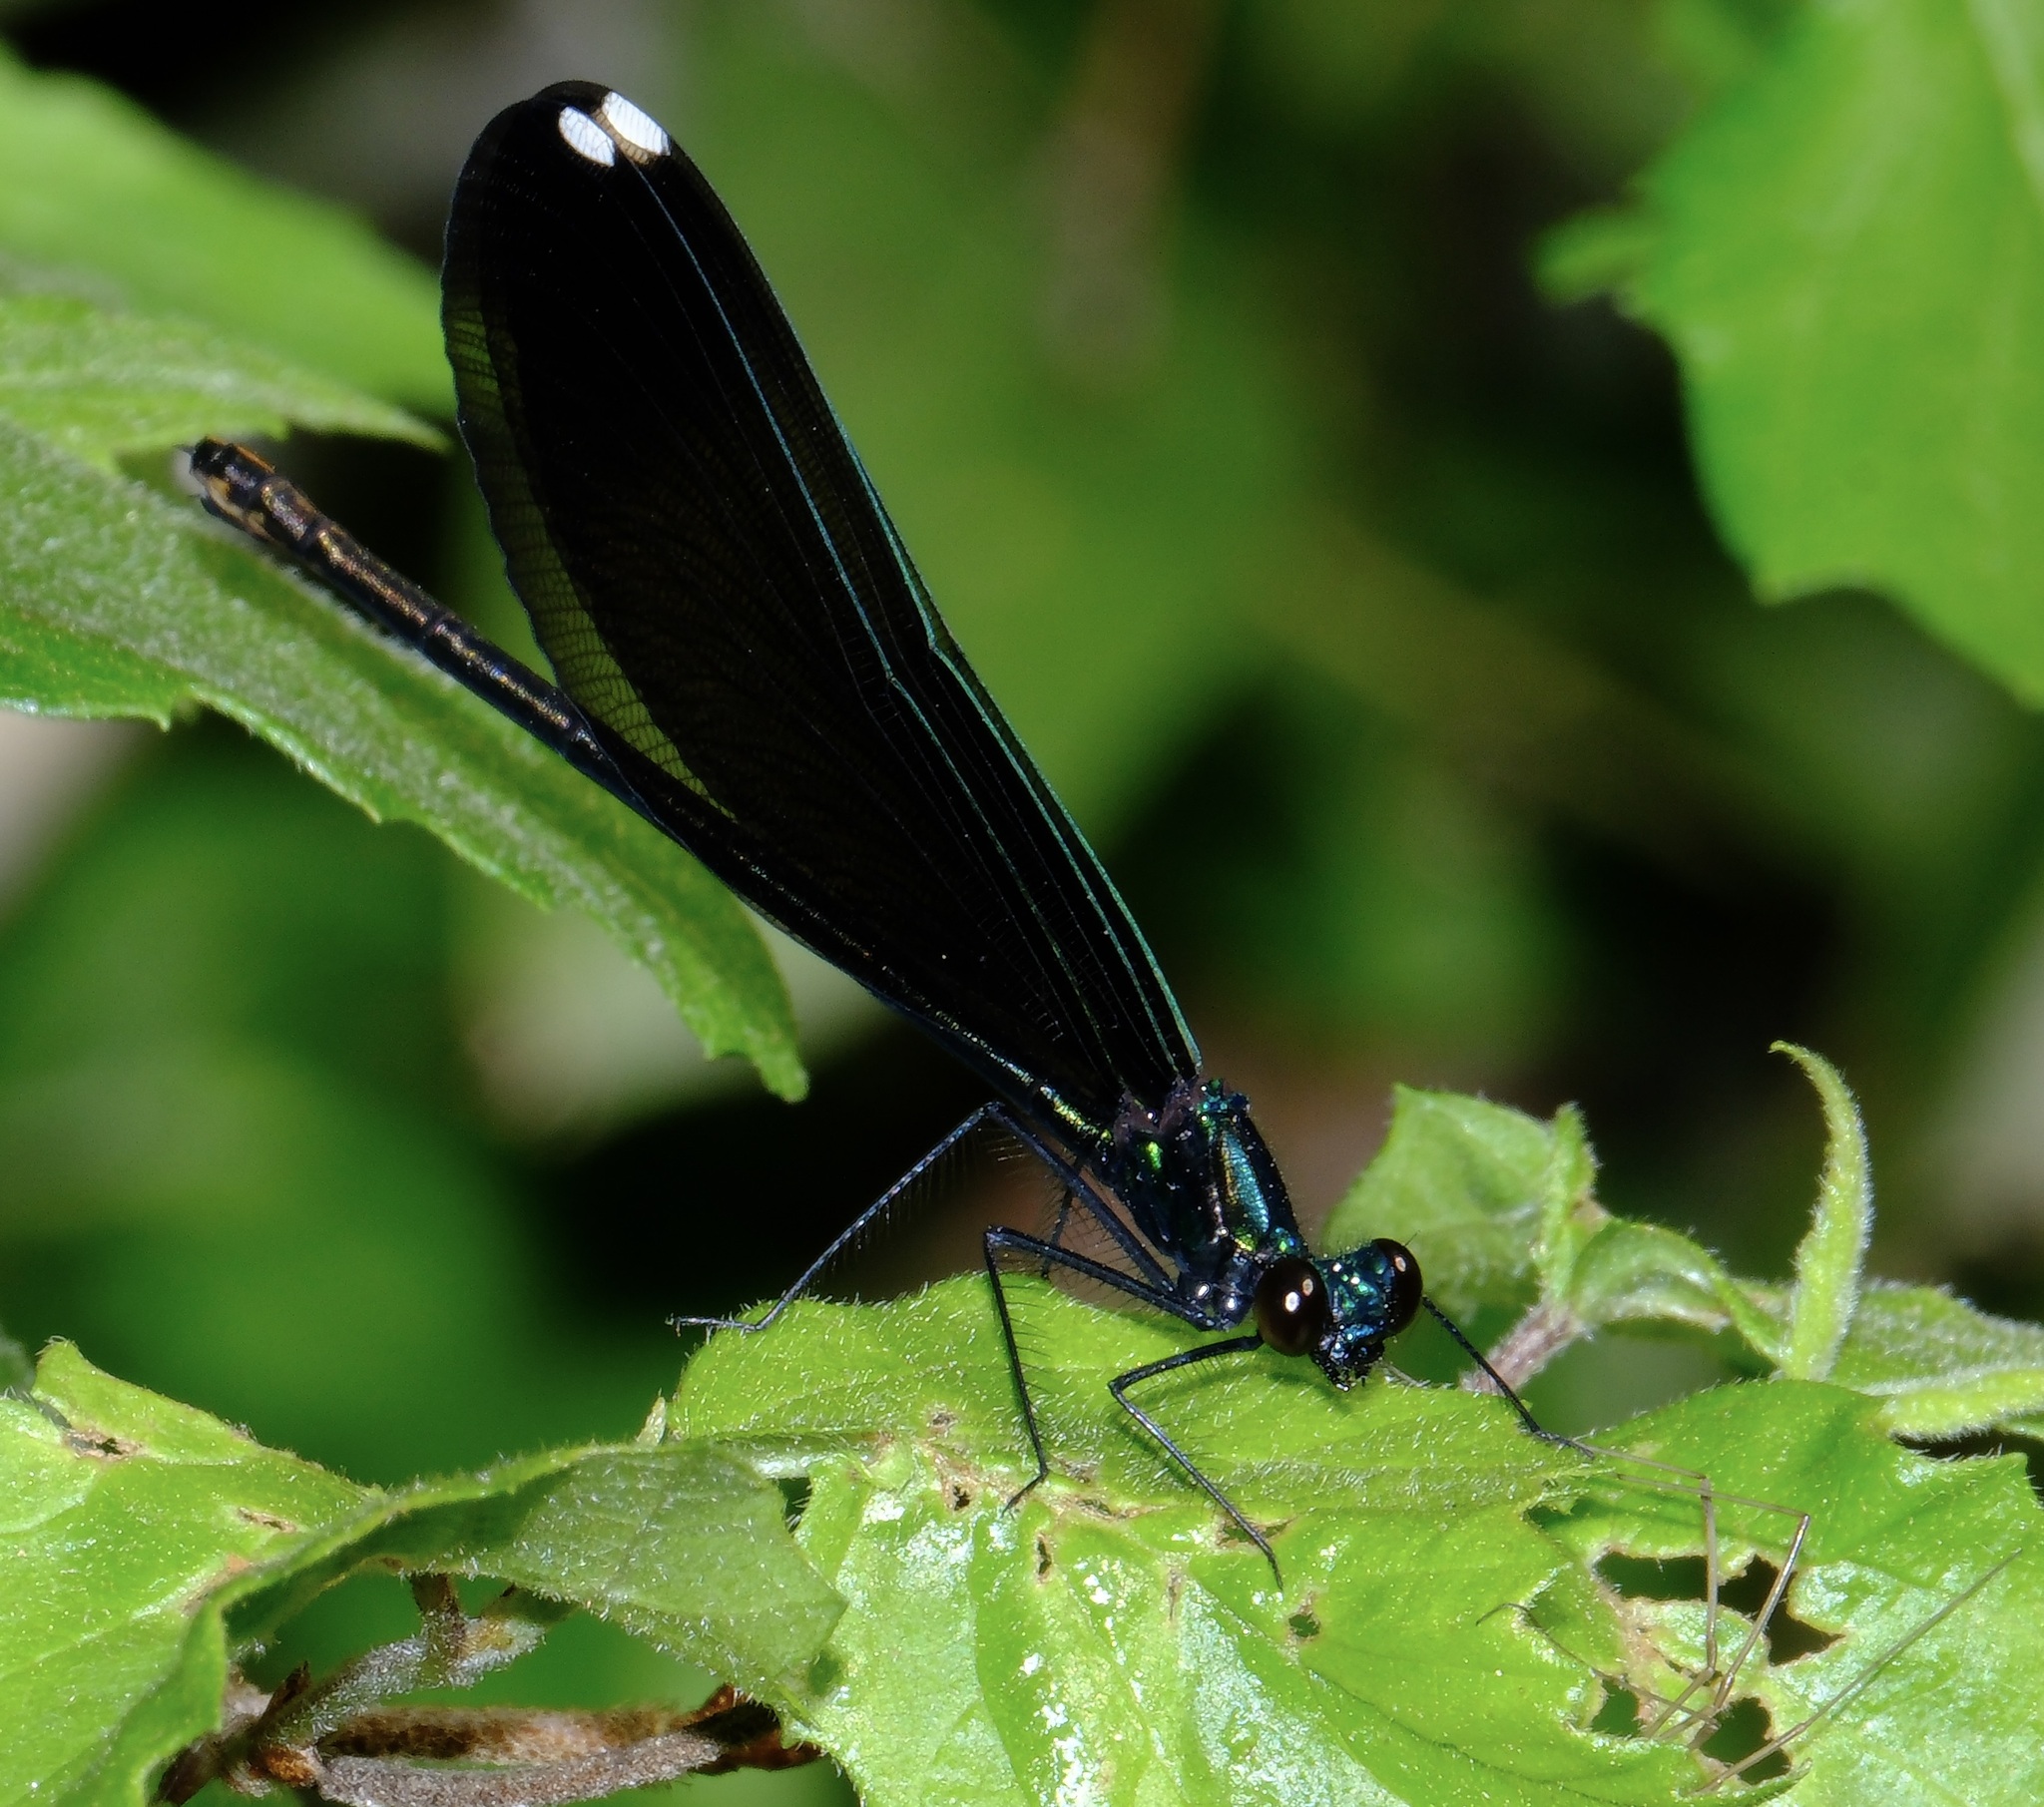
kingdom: Animalia
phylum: Arthropoda
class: Insecta
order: Odonata
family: Calopterygidae
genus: Calopteryx
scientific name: Calopteryx maculata
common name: Ebony jewelwing
